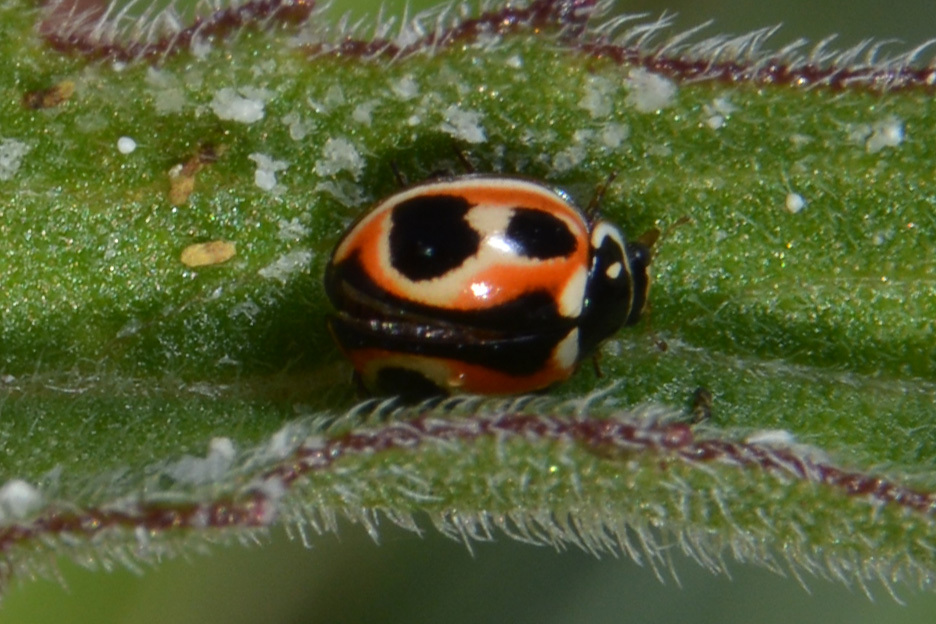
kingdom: Animalia
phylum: Arthropoda
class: Insecta
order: Coleoptera
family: Coccinellidae
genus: Cycloneda
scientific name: Cycloneda ancoralis
